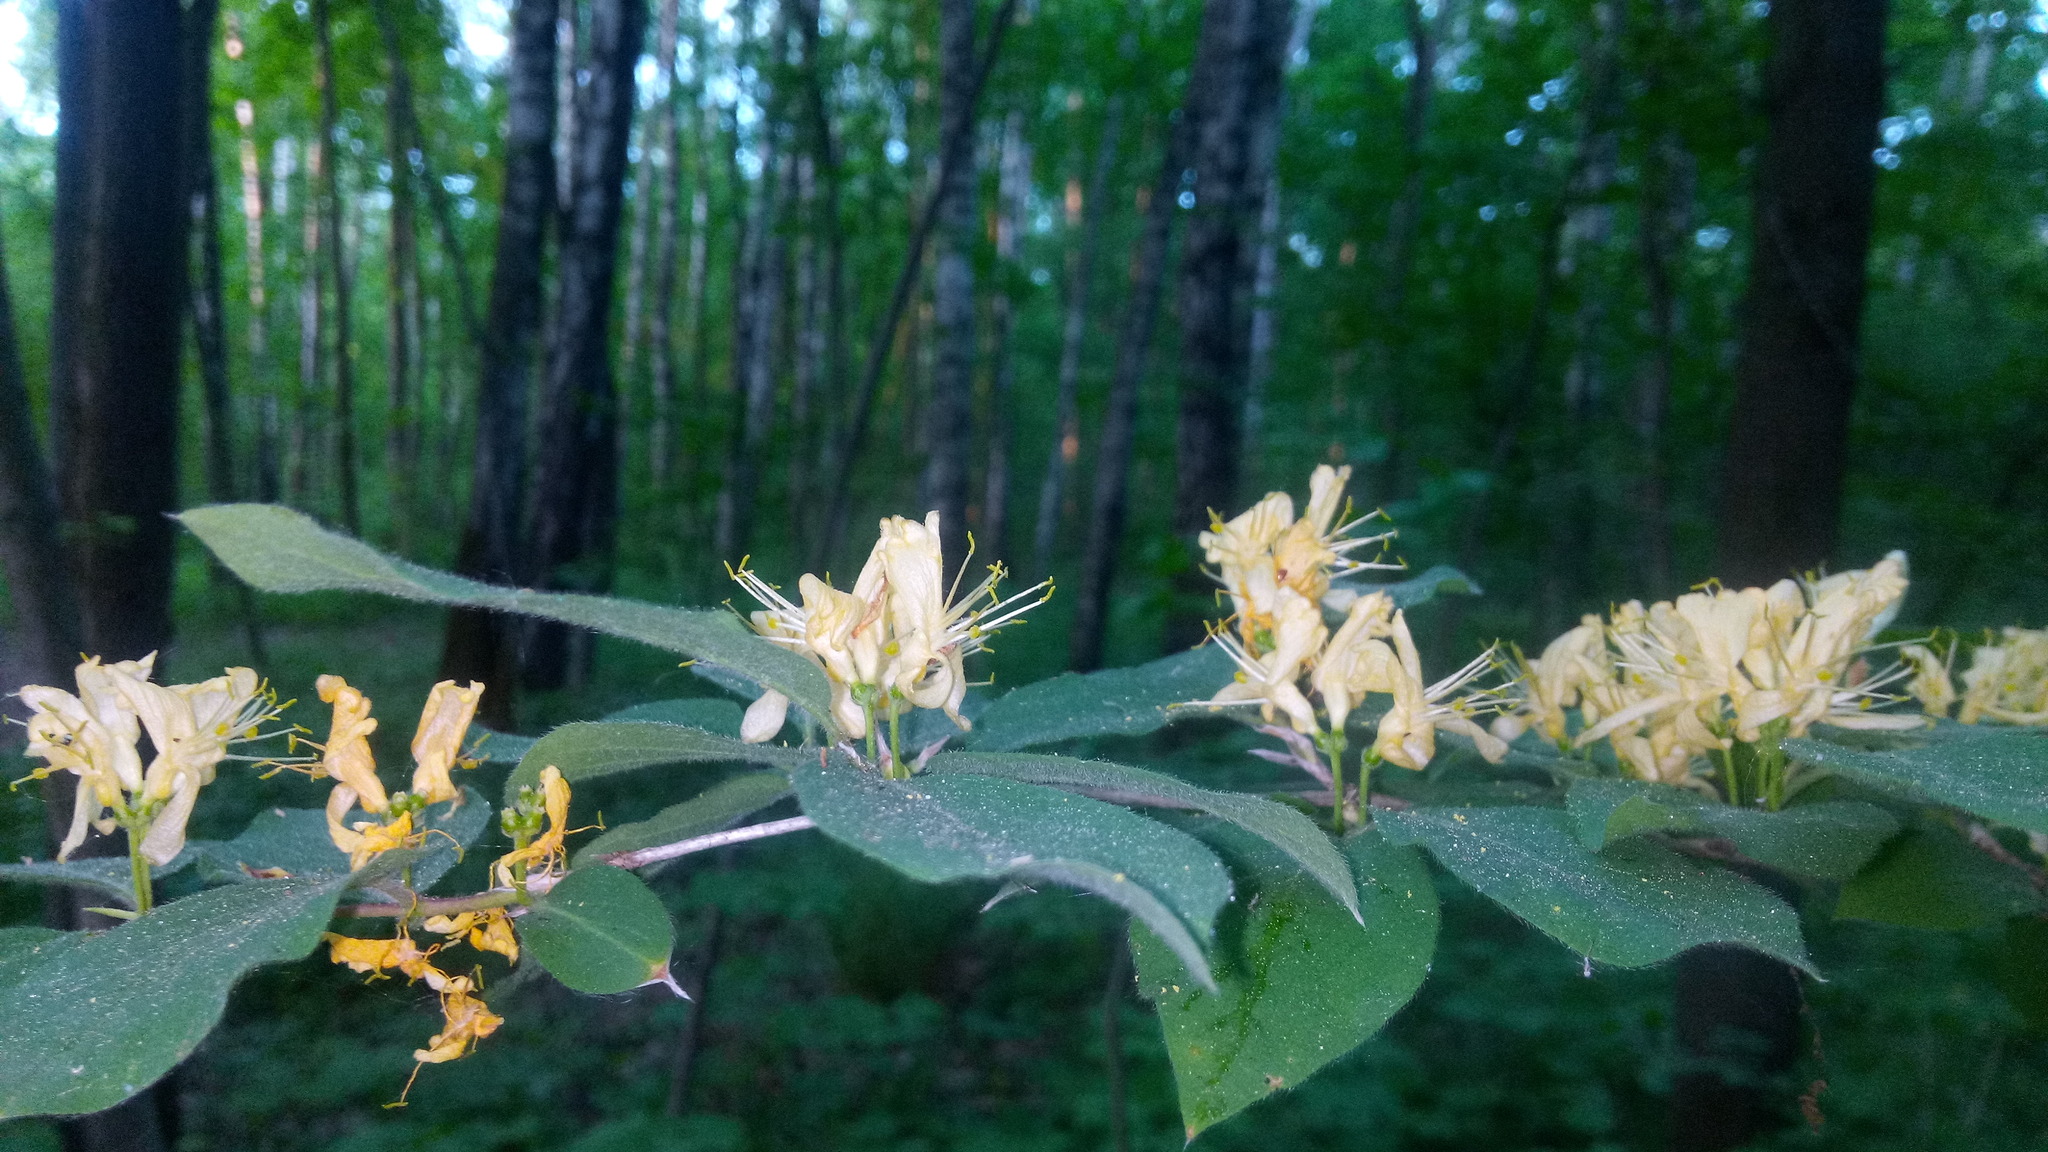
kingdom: Plantae
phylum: Tracheophyta
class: Magnoliopsida
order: Dipsacales
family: Caprifoliaceae
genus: Lonicera
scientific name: Lonicera xylosteum
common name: Fly honeysuckle
